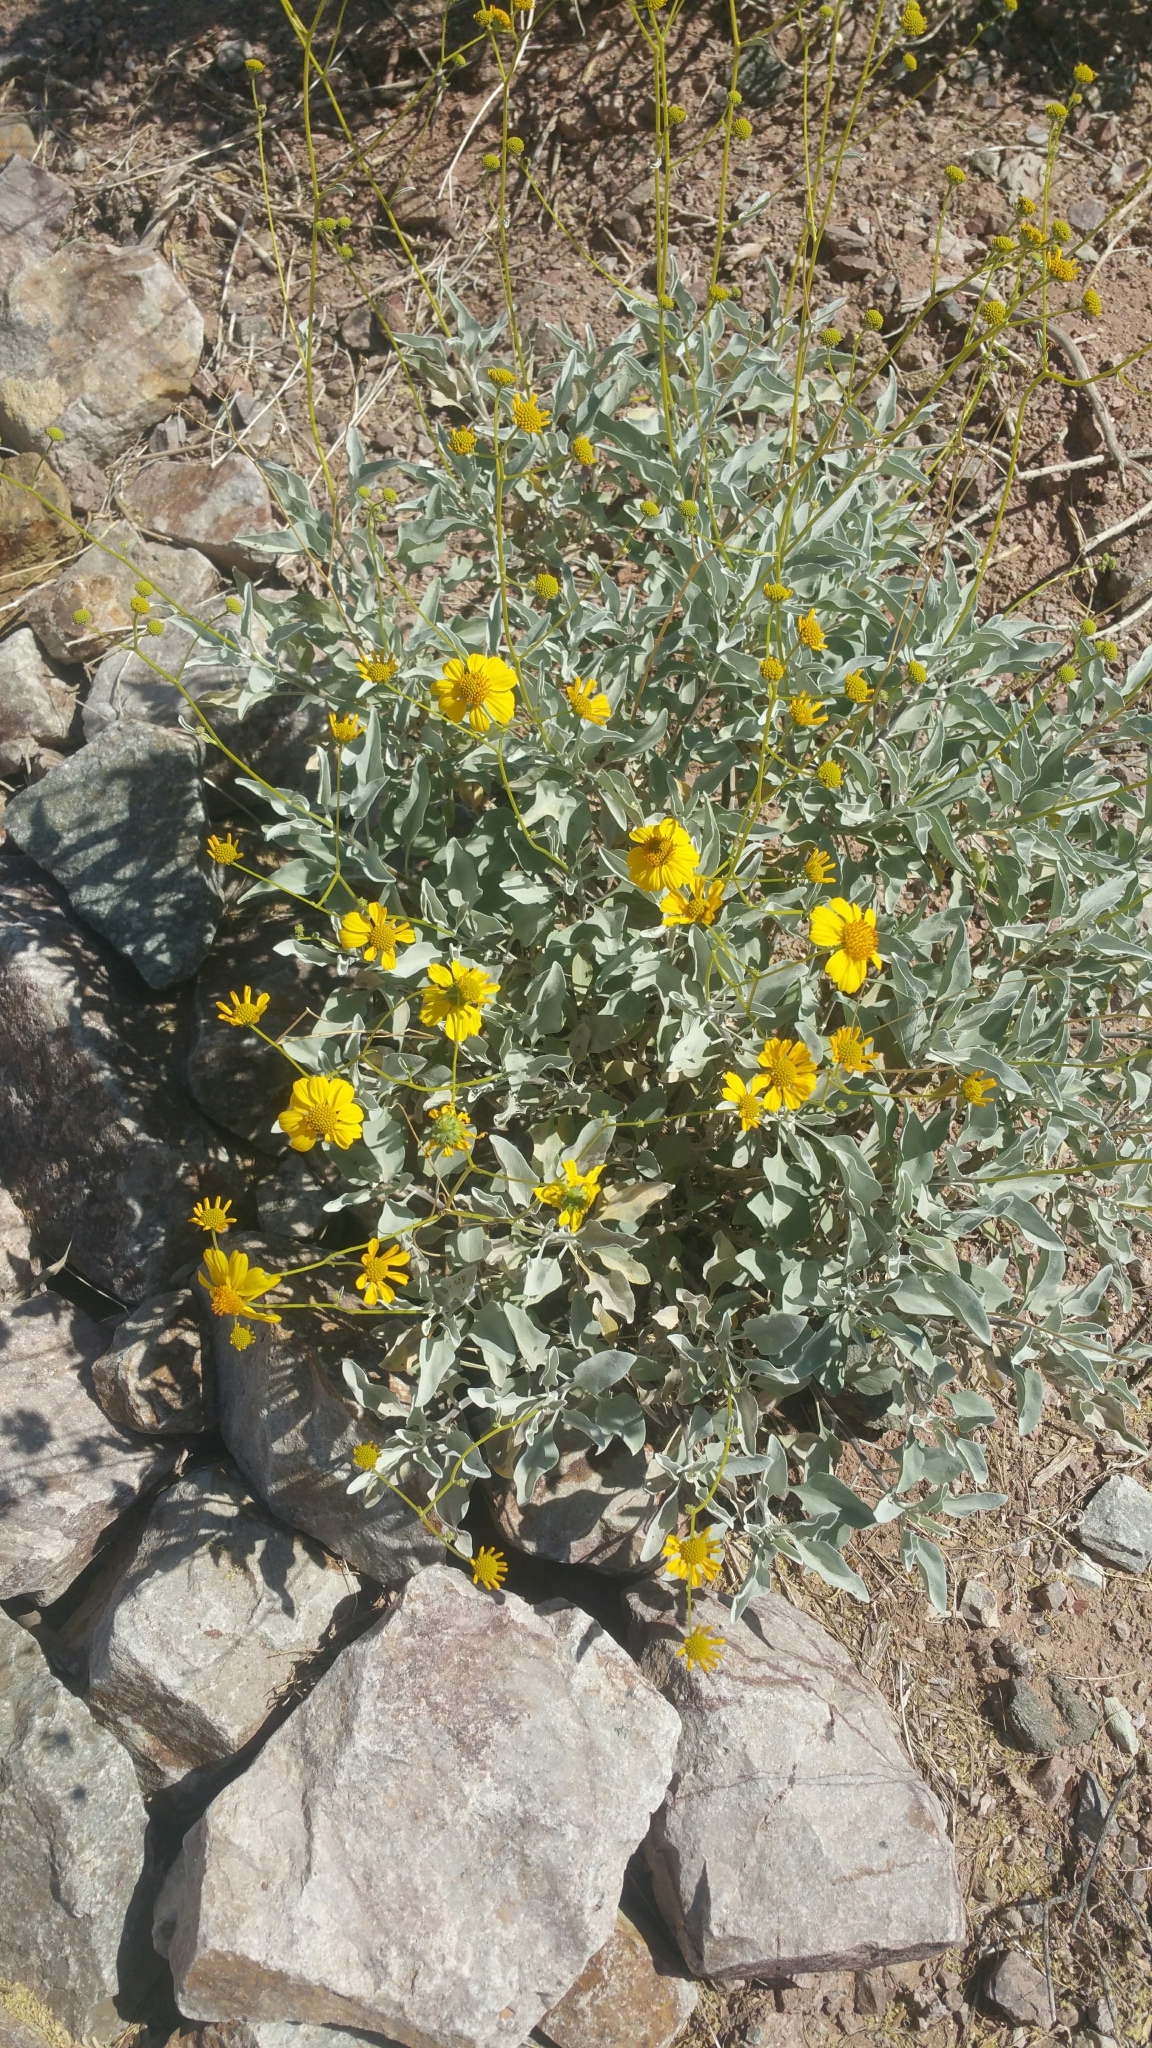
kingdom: Plantae
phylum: Tracheophyta
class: Magnoliopsida
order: Asterales
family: Asteraceae
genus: Encelia
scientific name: Encelia farinosa
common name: Brittlebush
